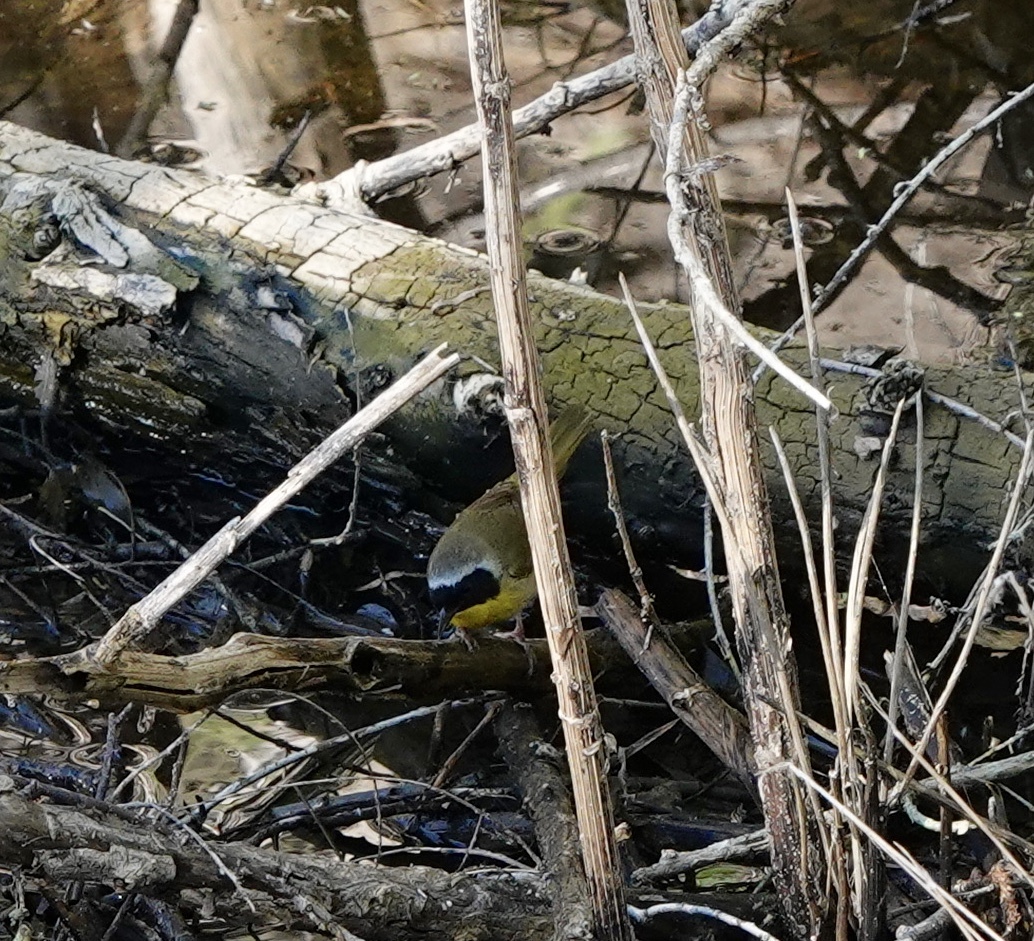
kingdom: Animalia
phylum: Chordata
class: Aves
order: Passeriformes
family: Parulidae
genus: Geothlypis
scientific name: Geothlypis trichas
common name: Common yellowthroat
